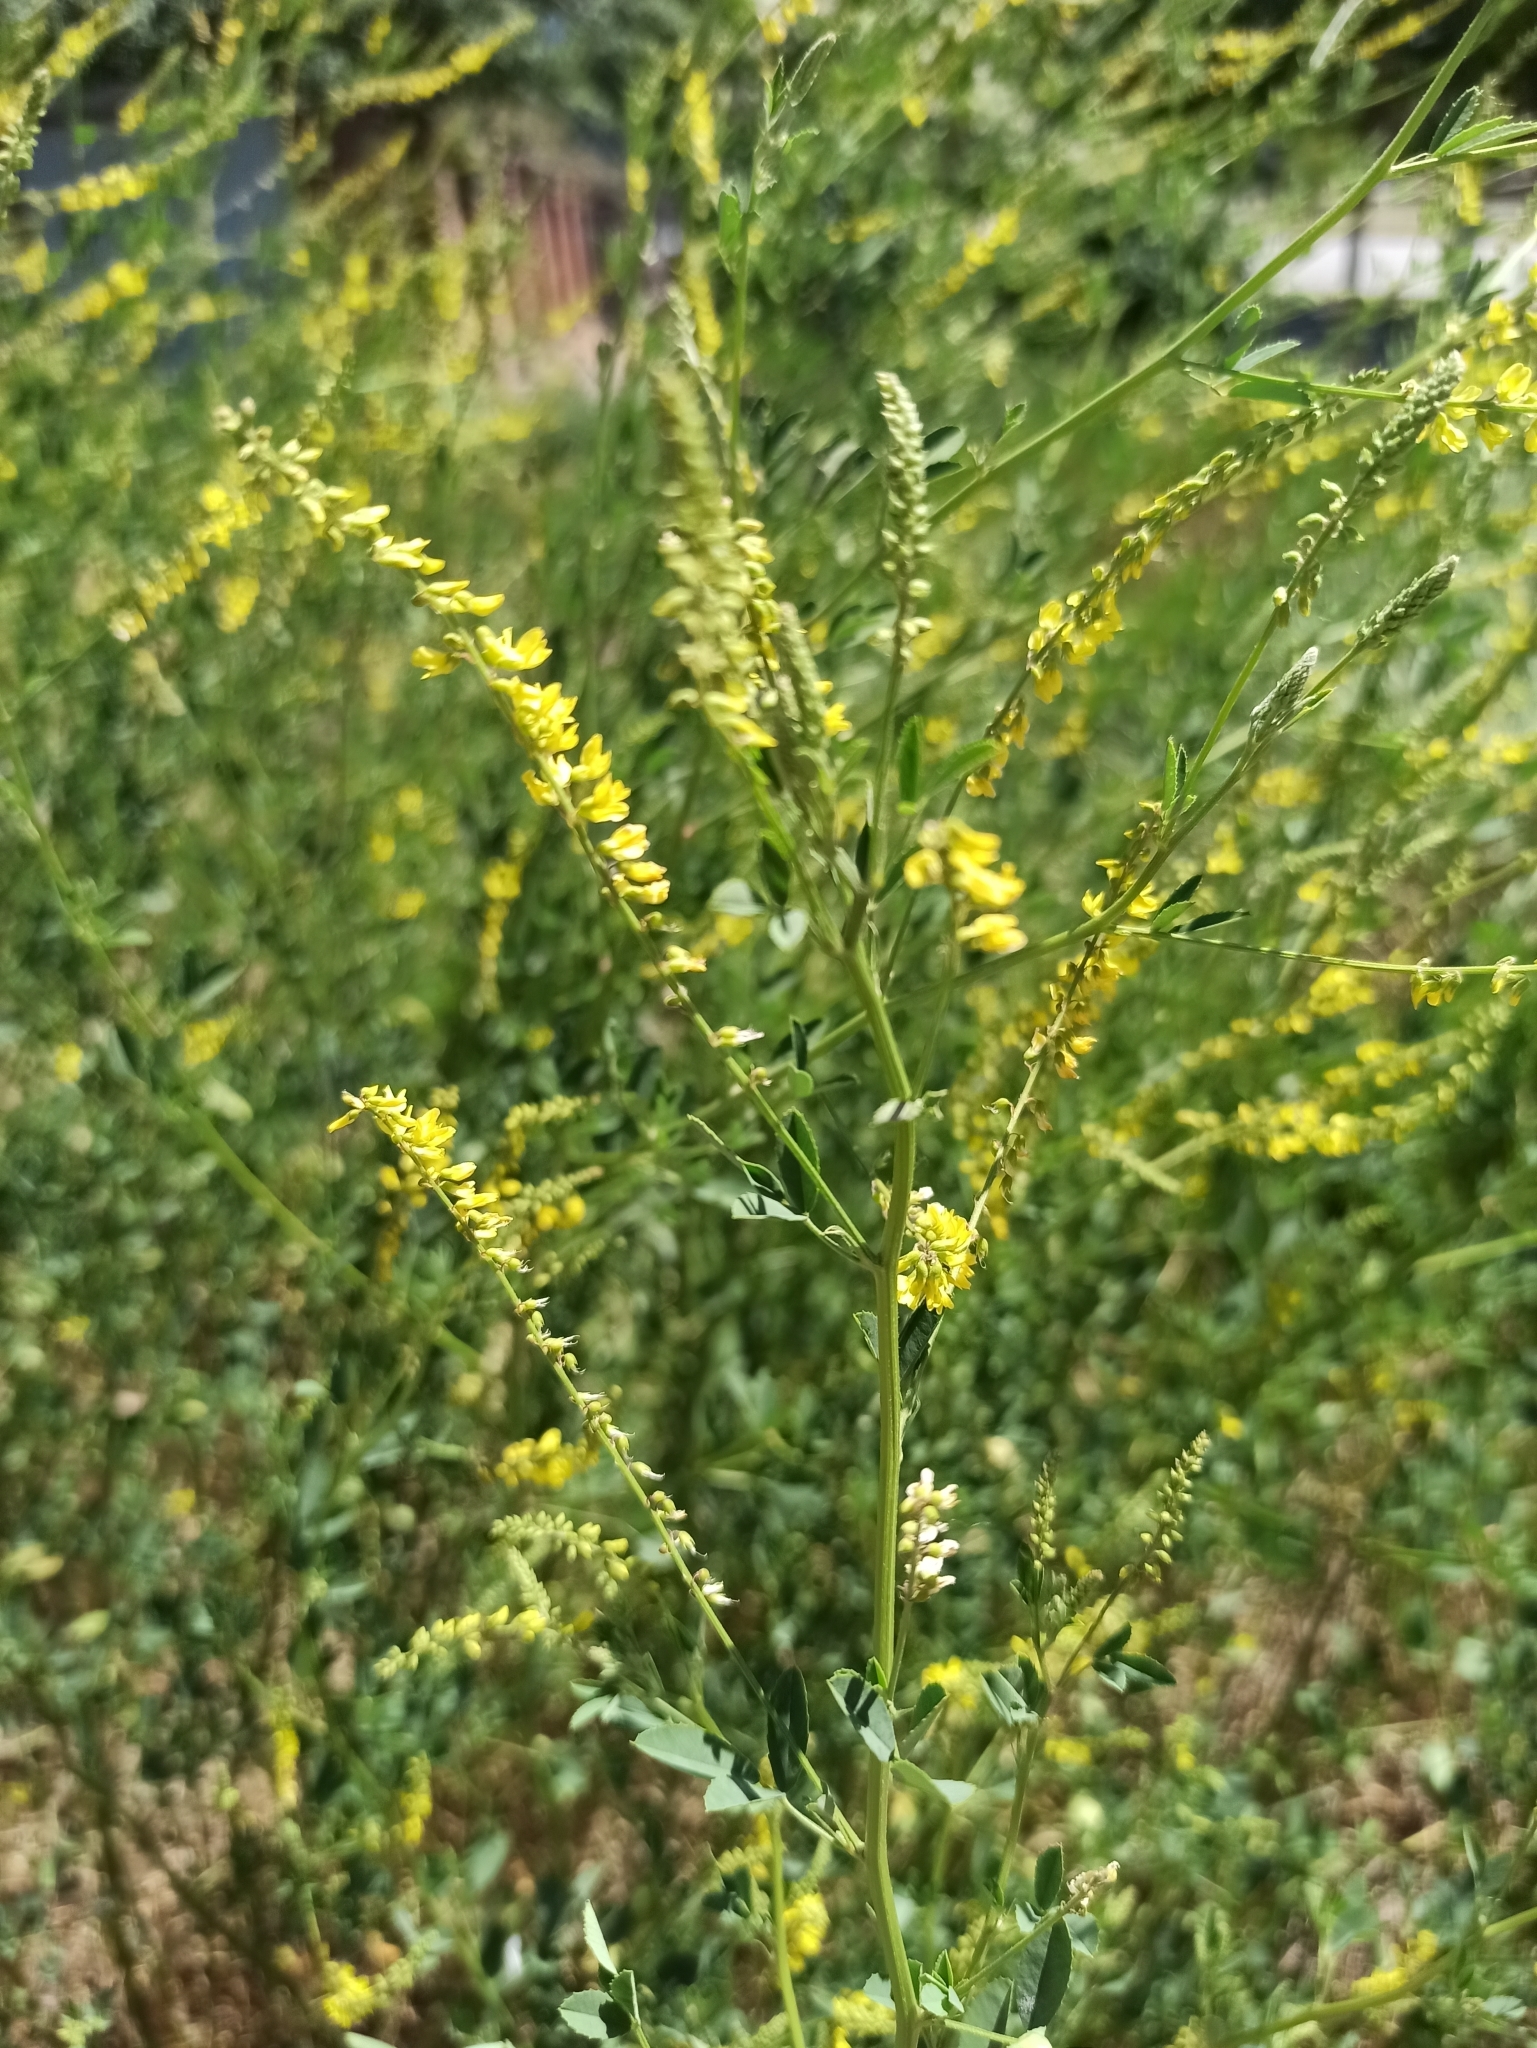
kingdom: Plantae
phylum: Tracheophyta
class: Magnoliopsida
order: Fabales
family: Fabaceae
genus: Melilotus
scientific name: Melilotus officinalis
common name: Sweetclover
